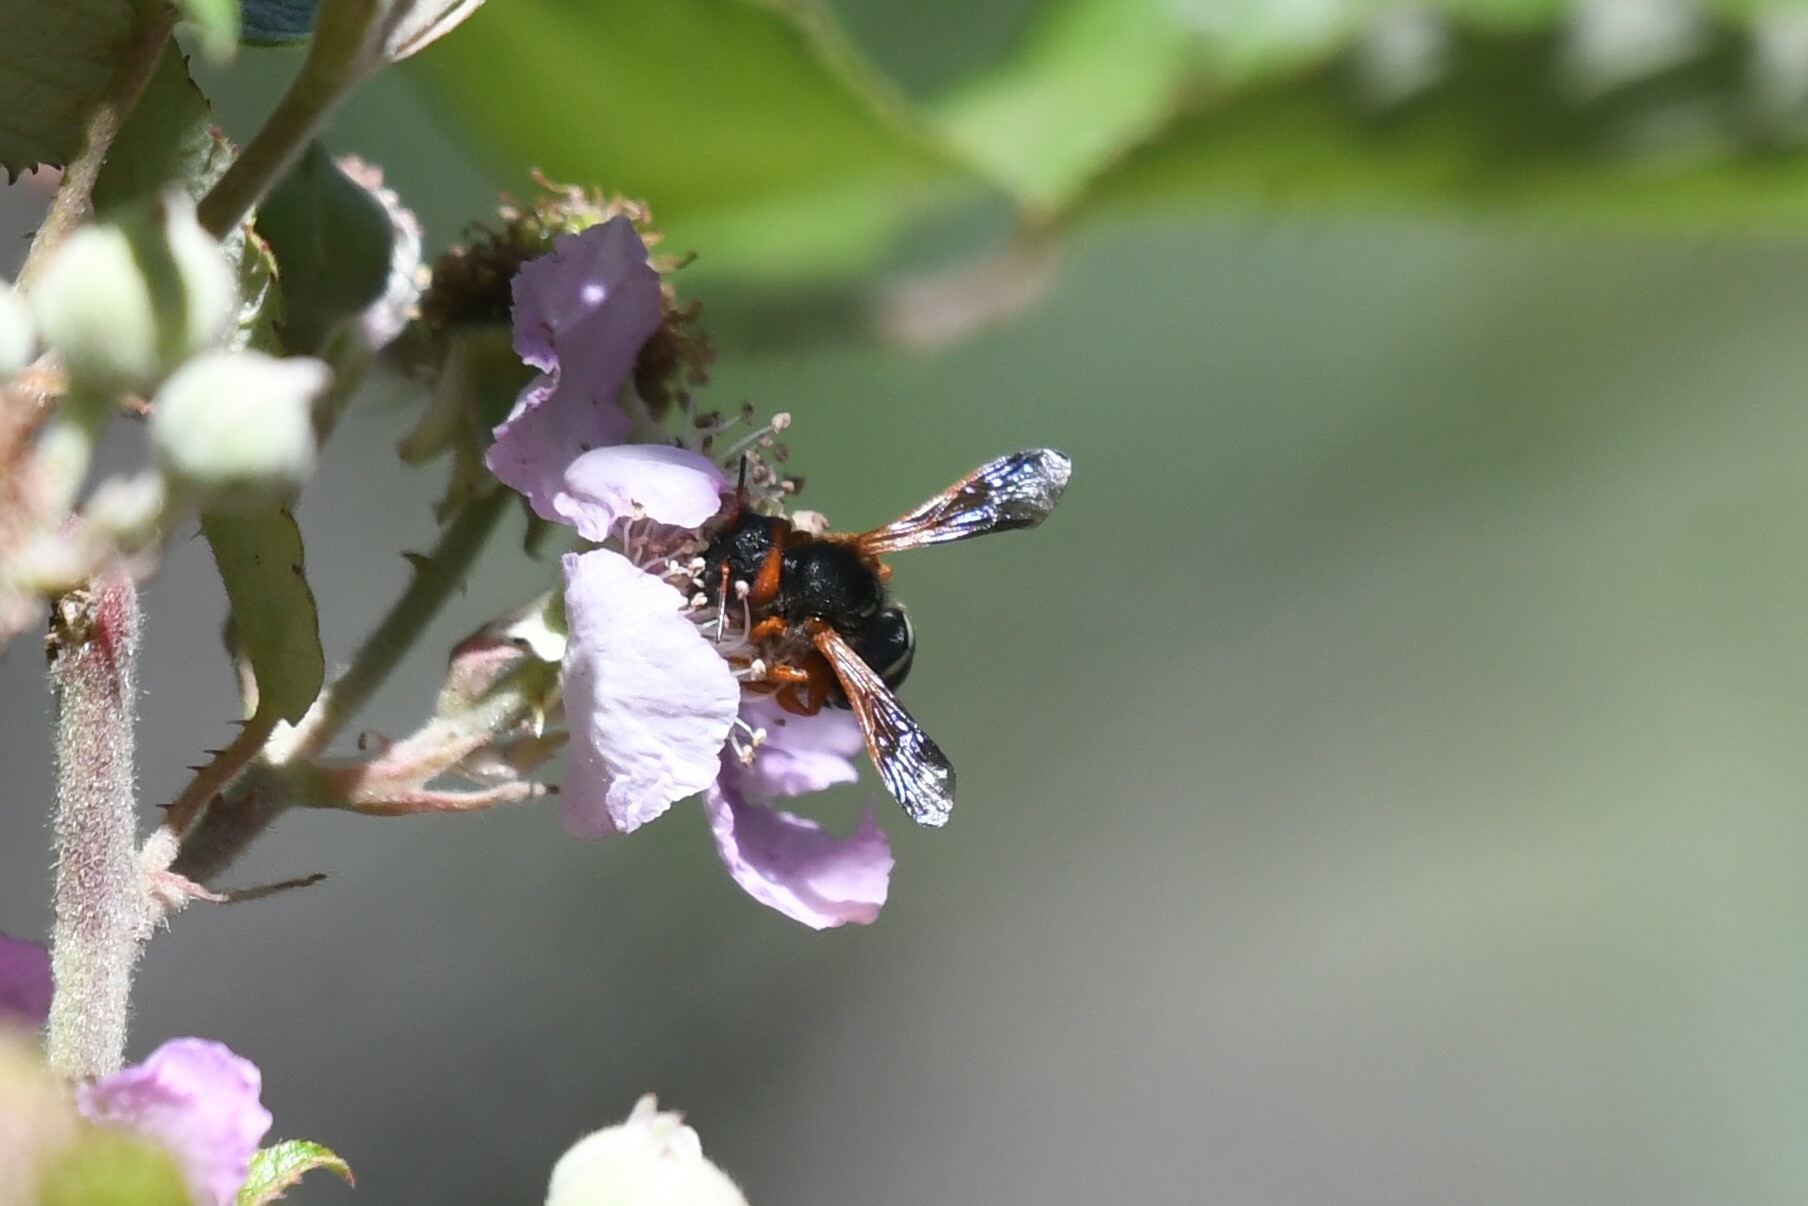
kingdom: Animalia
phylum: Arthropoda
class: Insecta
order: Hymenoptera
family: Megachilidae
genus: Notanthidium
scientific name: Notanthidium steloides
